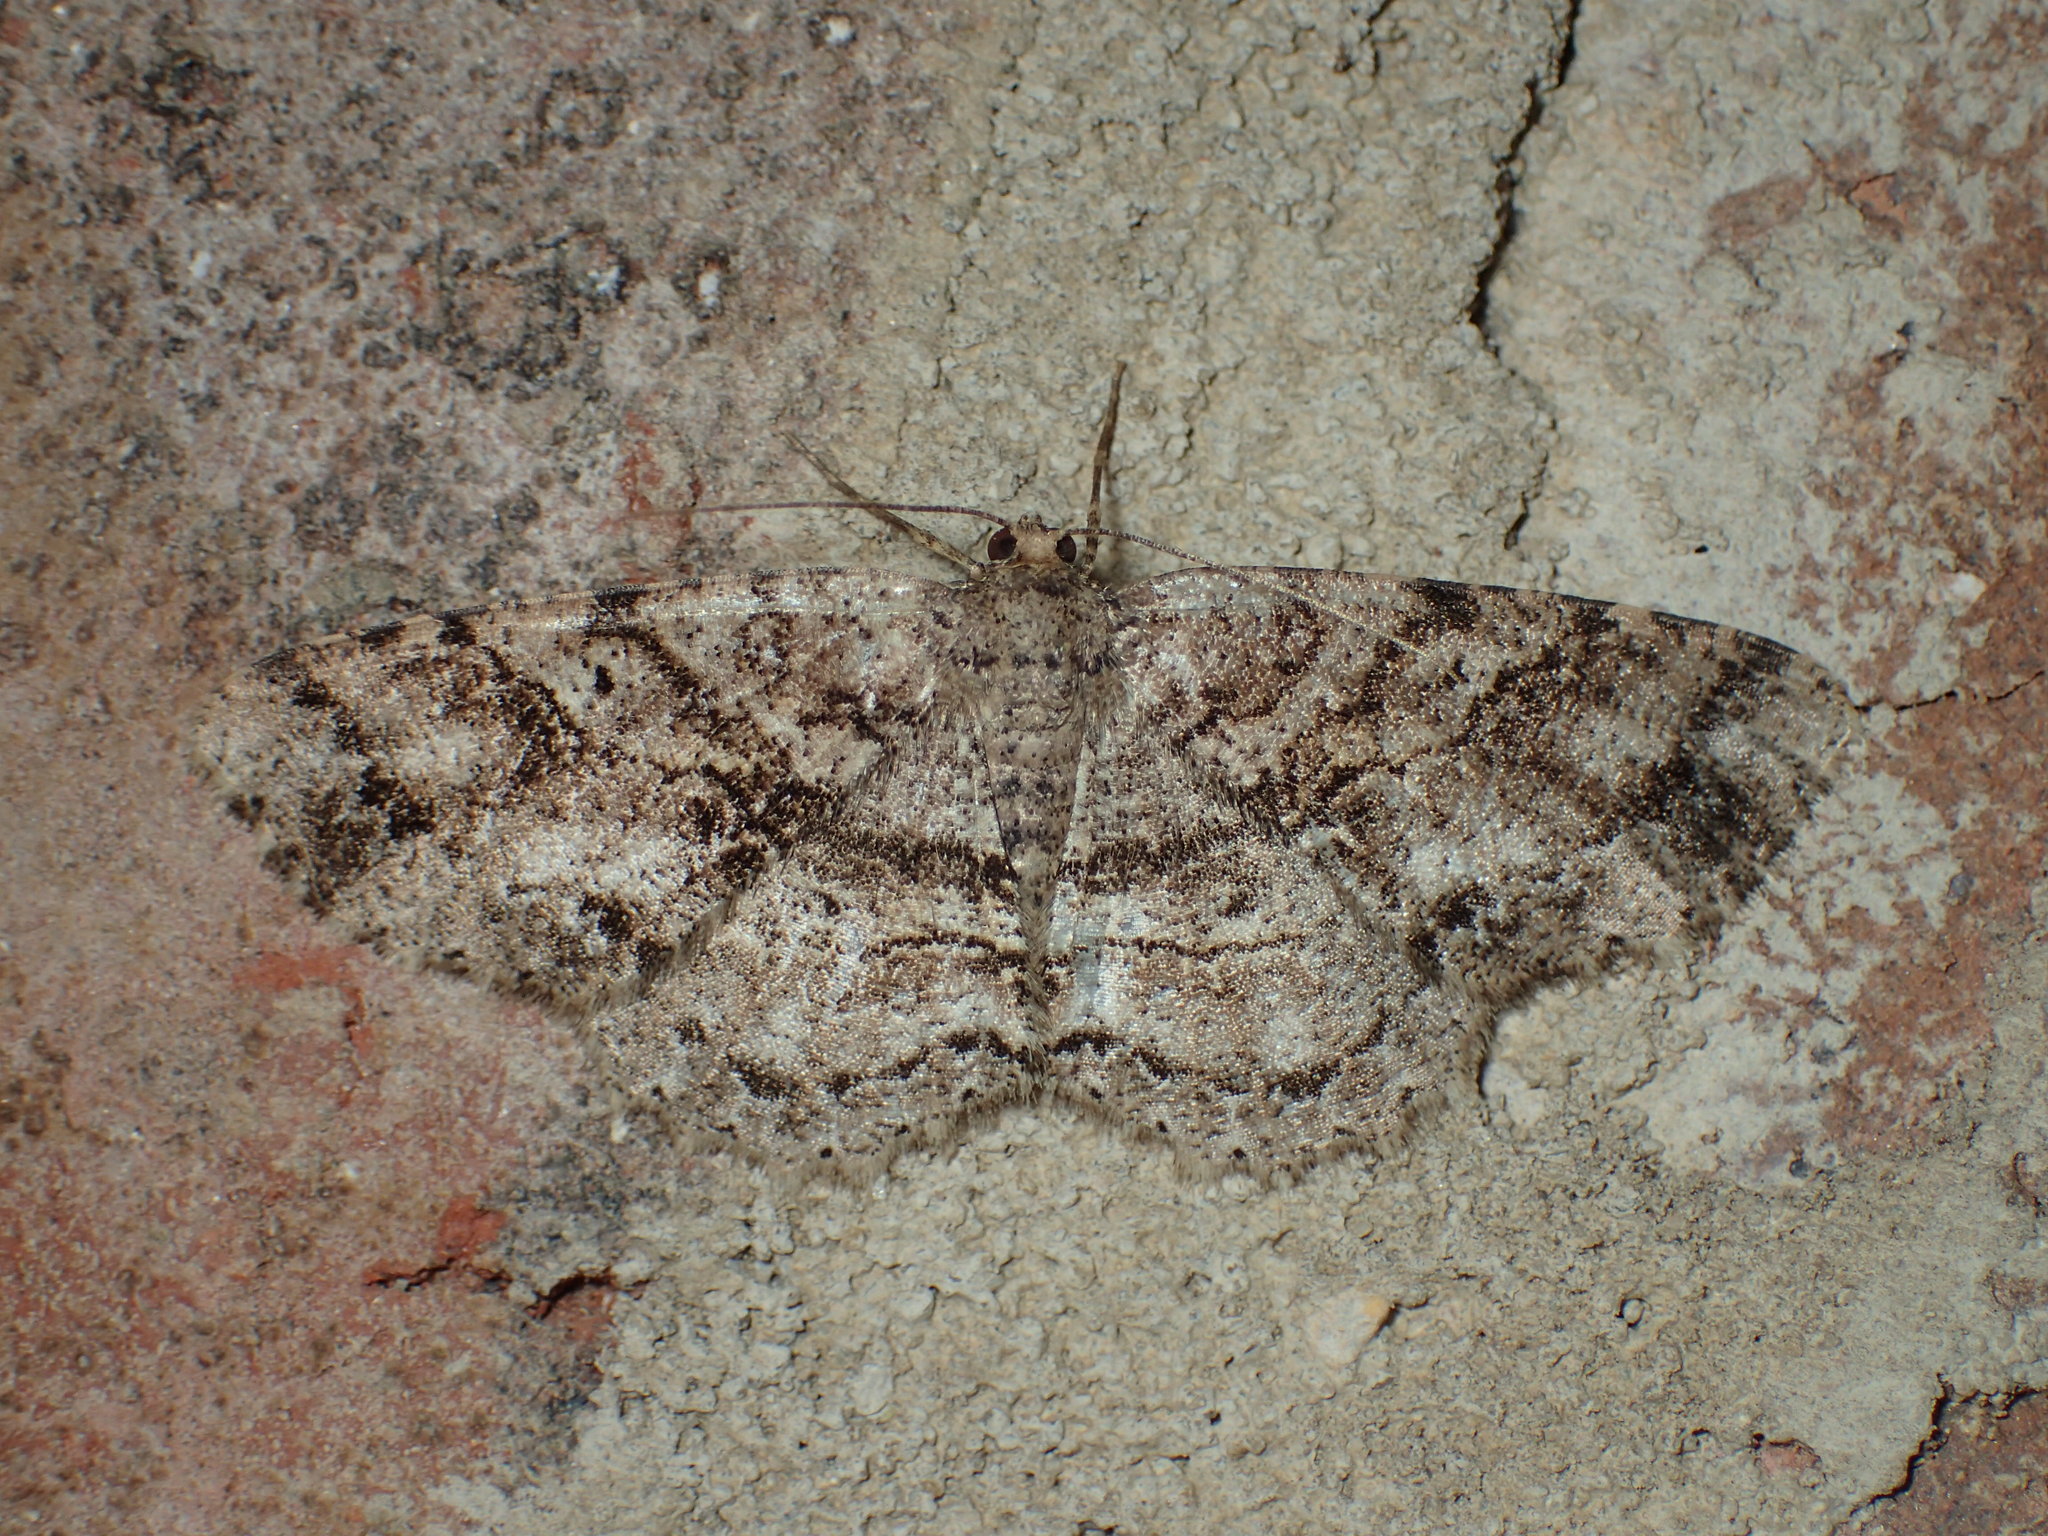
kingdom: Animalia
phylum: Arthropoda
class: Insecta
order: Lepidoptera
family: Geometridae
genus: Melanolophia
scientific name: Melanolophia canadaria
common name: Canadian melanolophia
